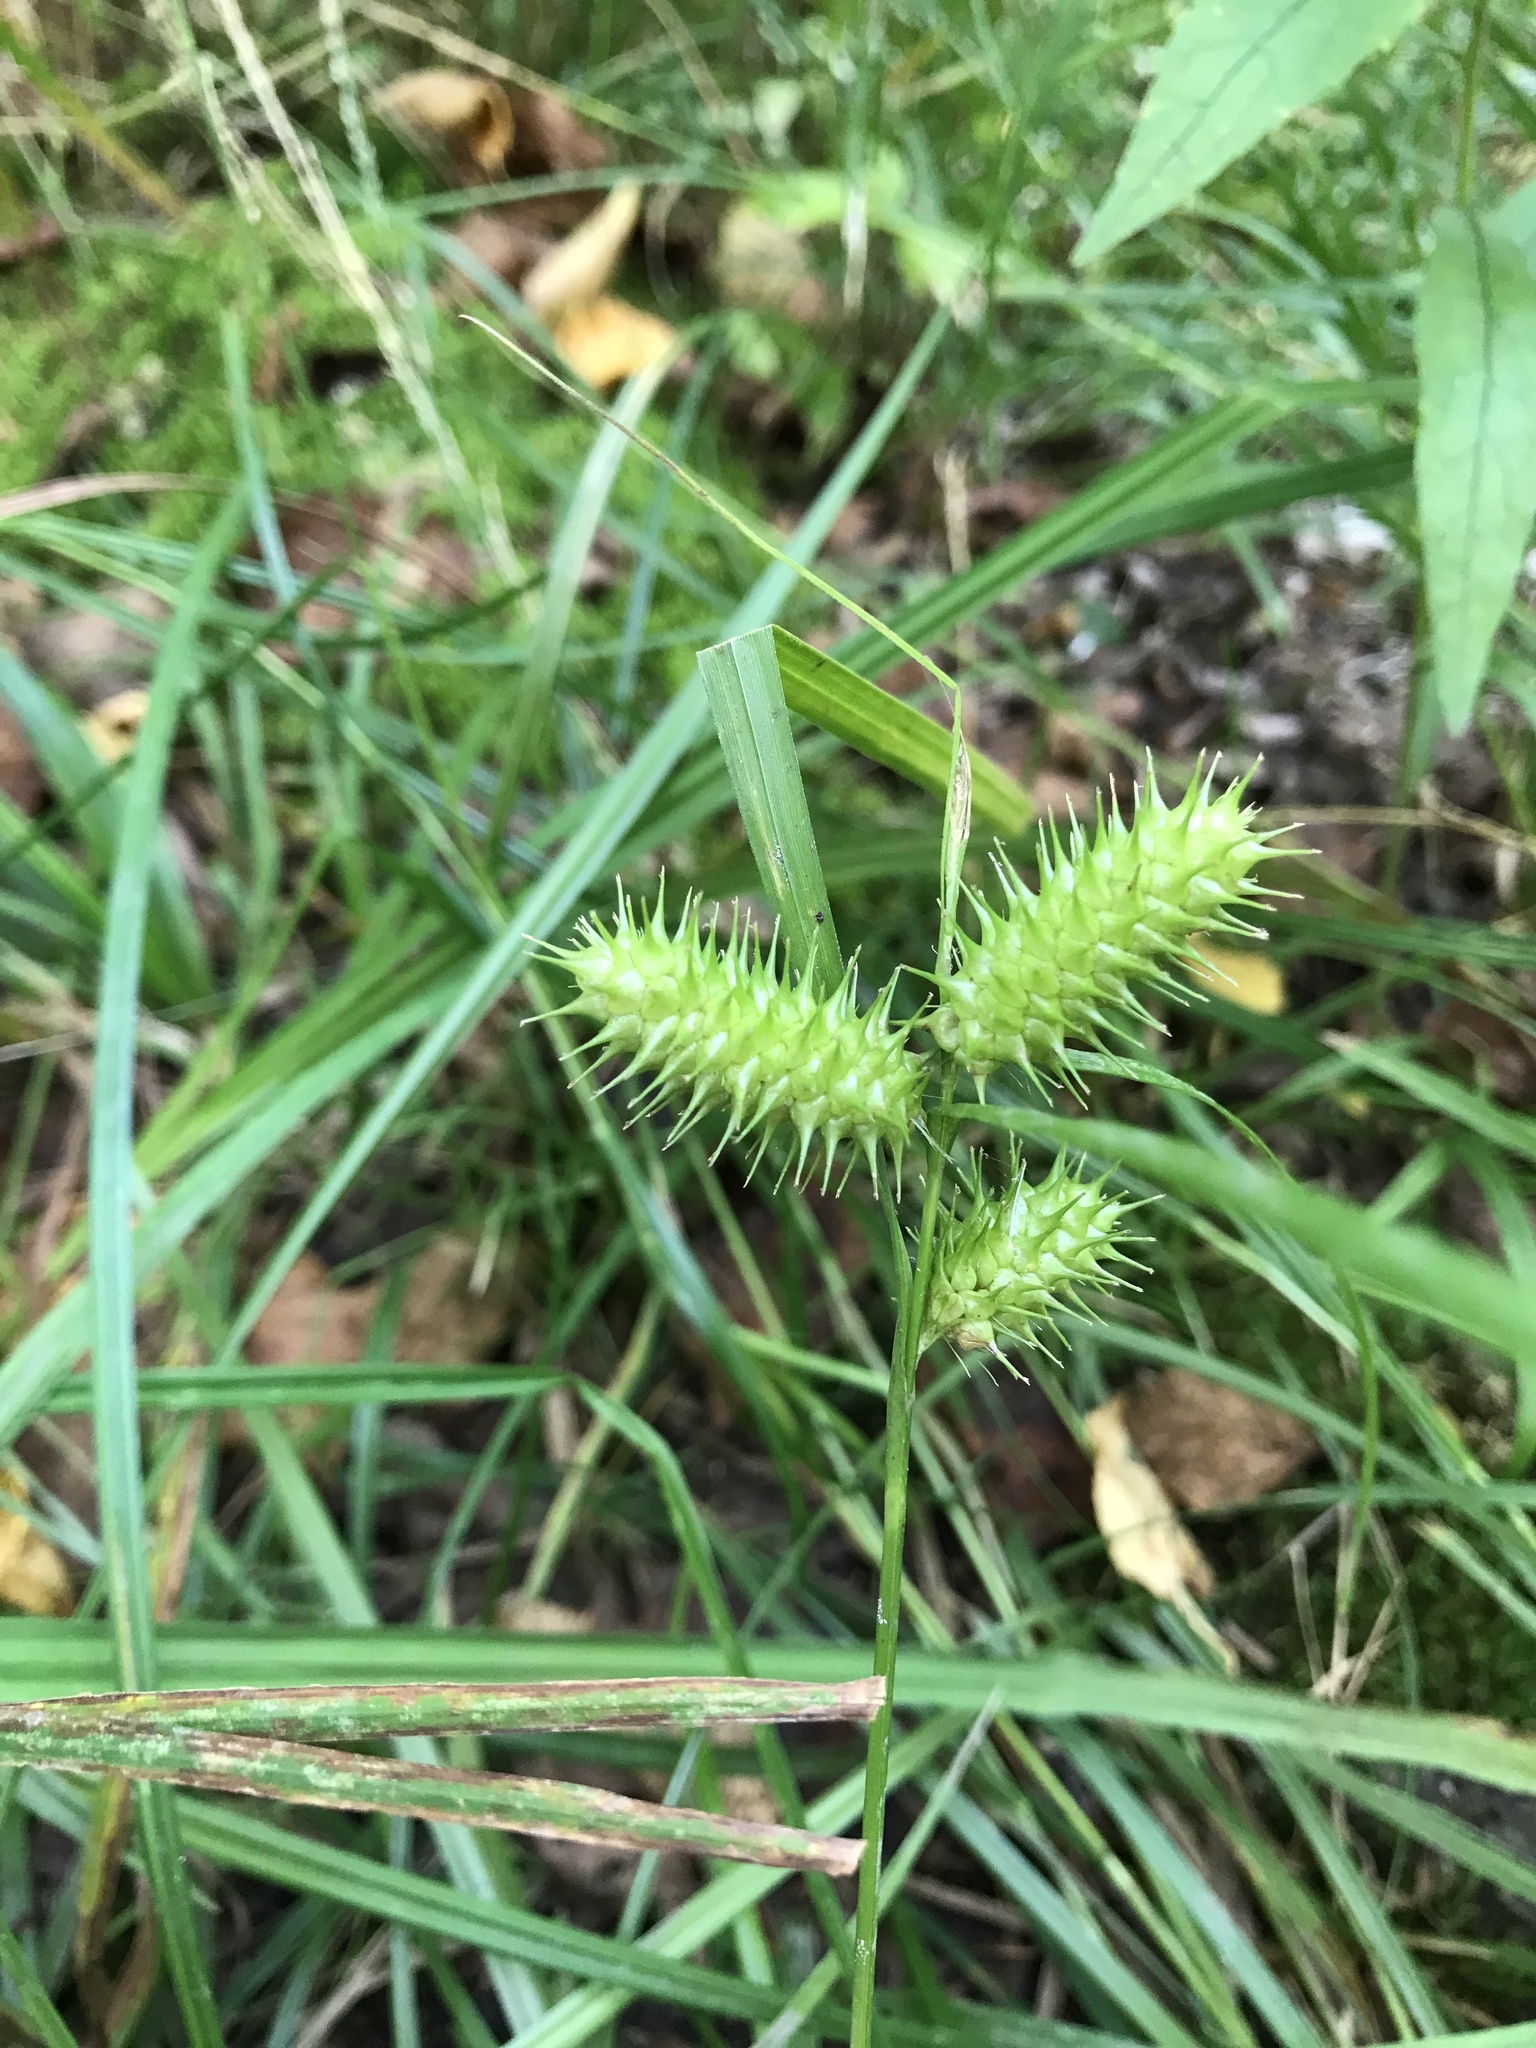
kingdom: Plantae
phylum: Tracheophyta
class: Liliopsida
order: Poales
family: Cyperaceae
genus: Carex
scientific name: Carex lurida
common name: Sallow sedge
